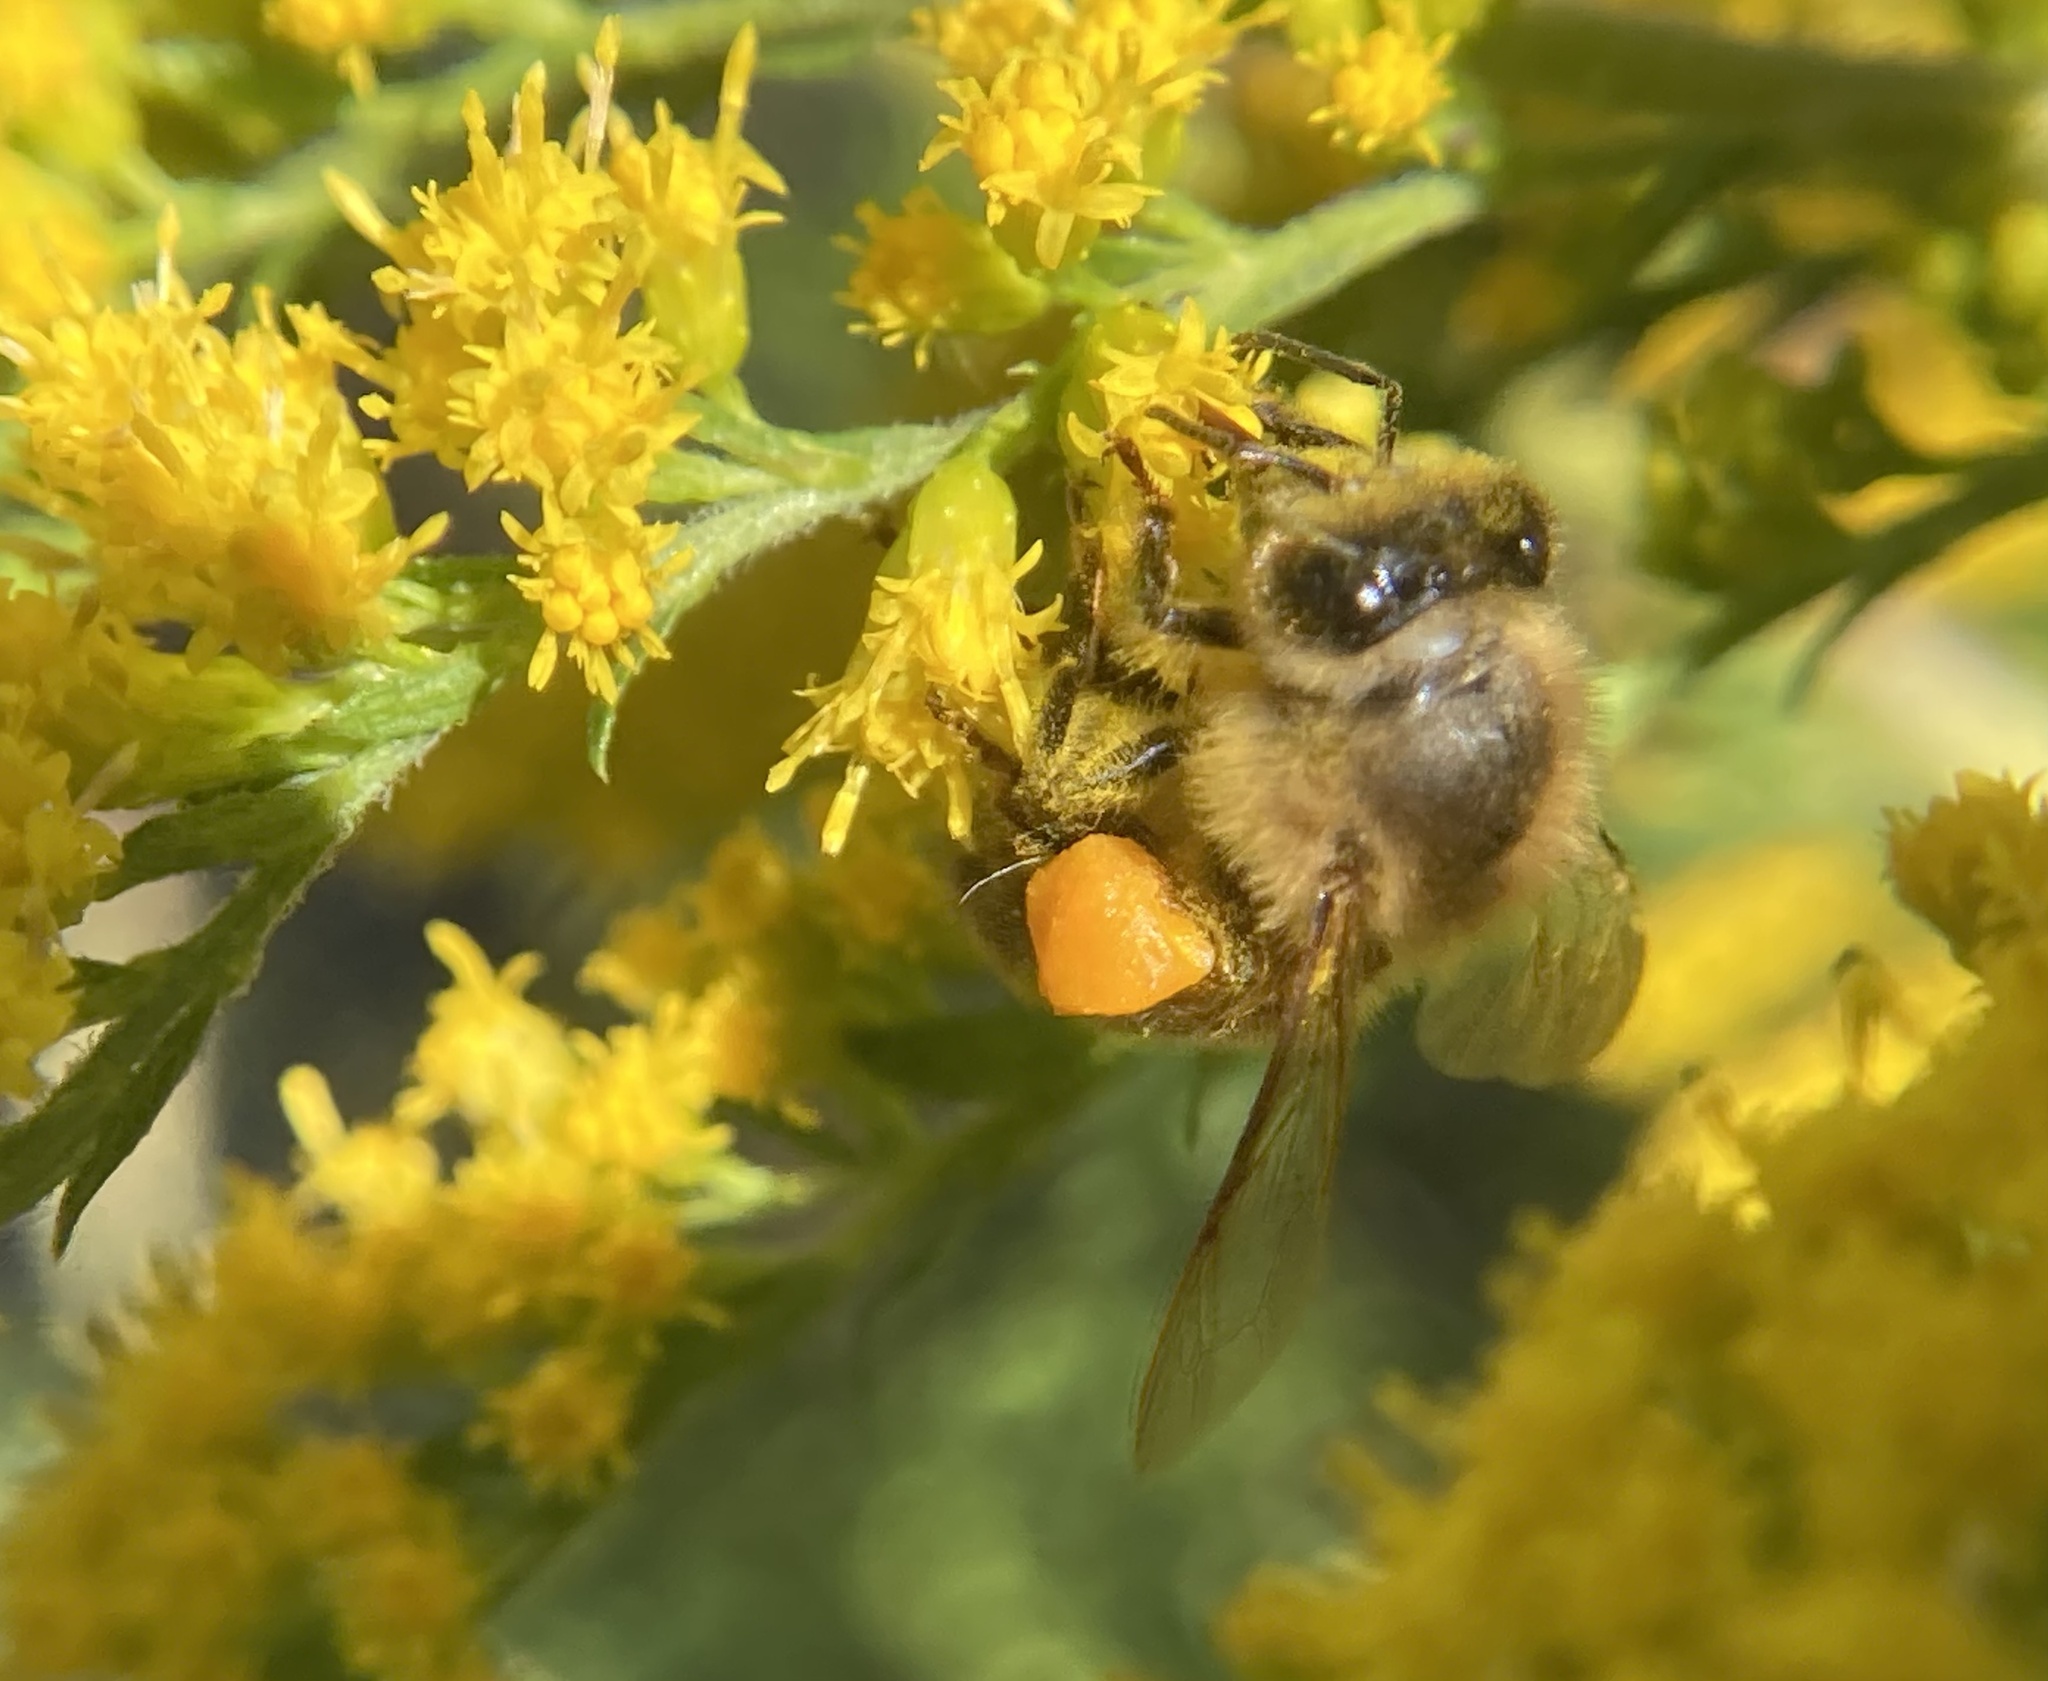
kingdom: Animalia
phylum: Arthropoda
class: Insecta
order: Hymenoptera
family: Apidae
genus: Apis
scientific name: Apis mellifera
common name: Honey bee
